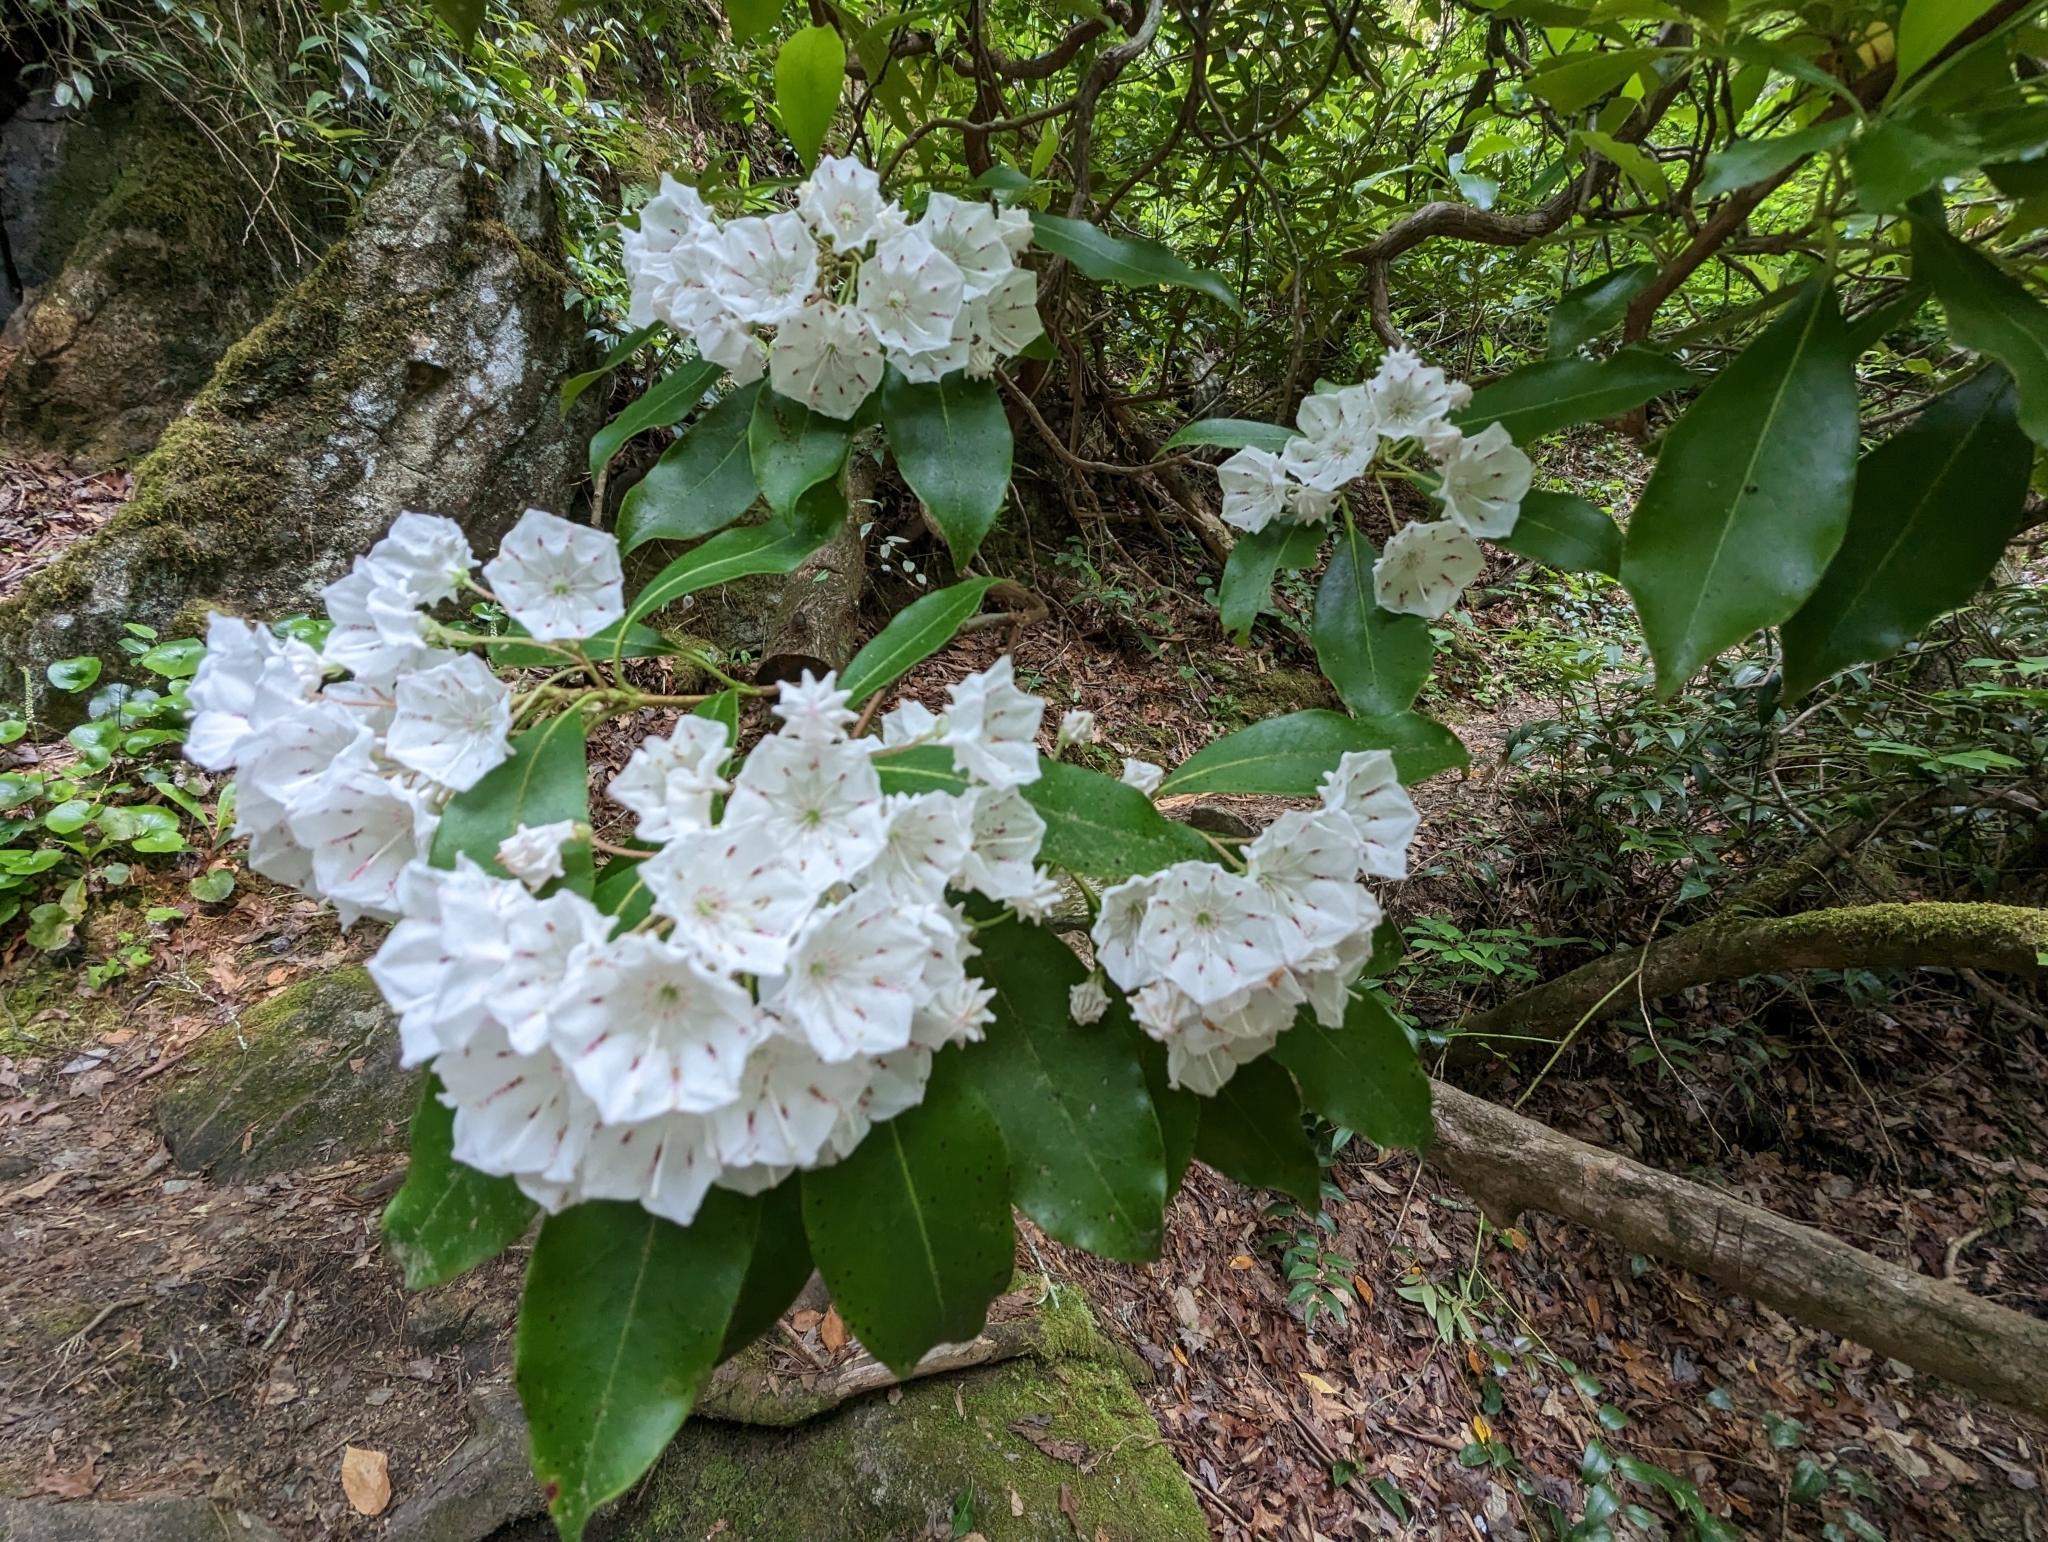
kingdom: Plantae
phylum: Tracheophyta
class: Magnoliopsida
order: Ericales
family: Ericaceae
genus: Kalmia
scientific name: Kalmia latifolia
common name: Mountain-laurel
